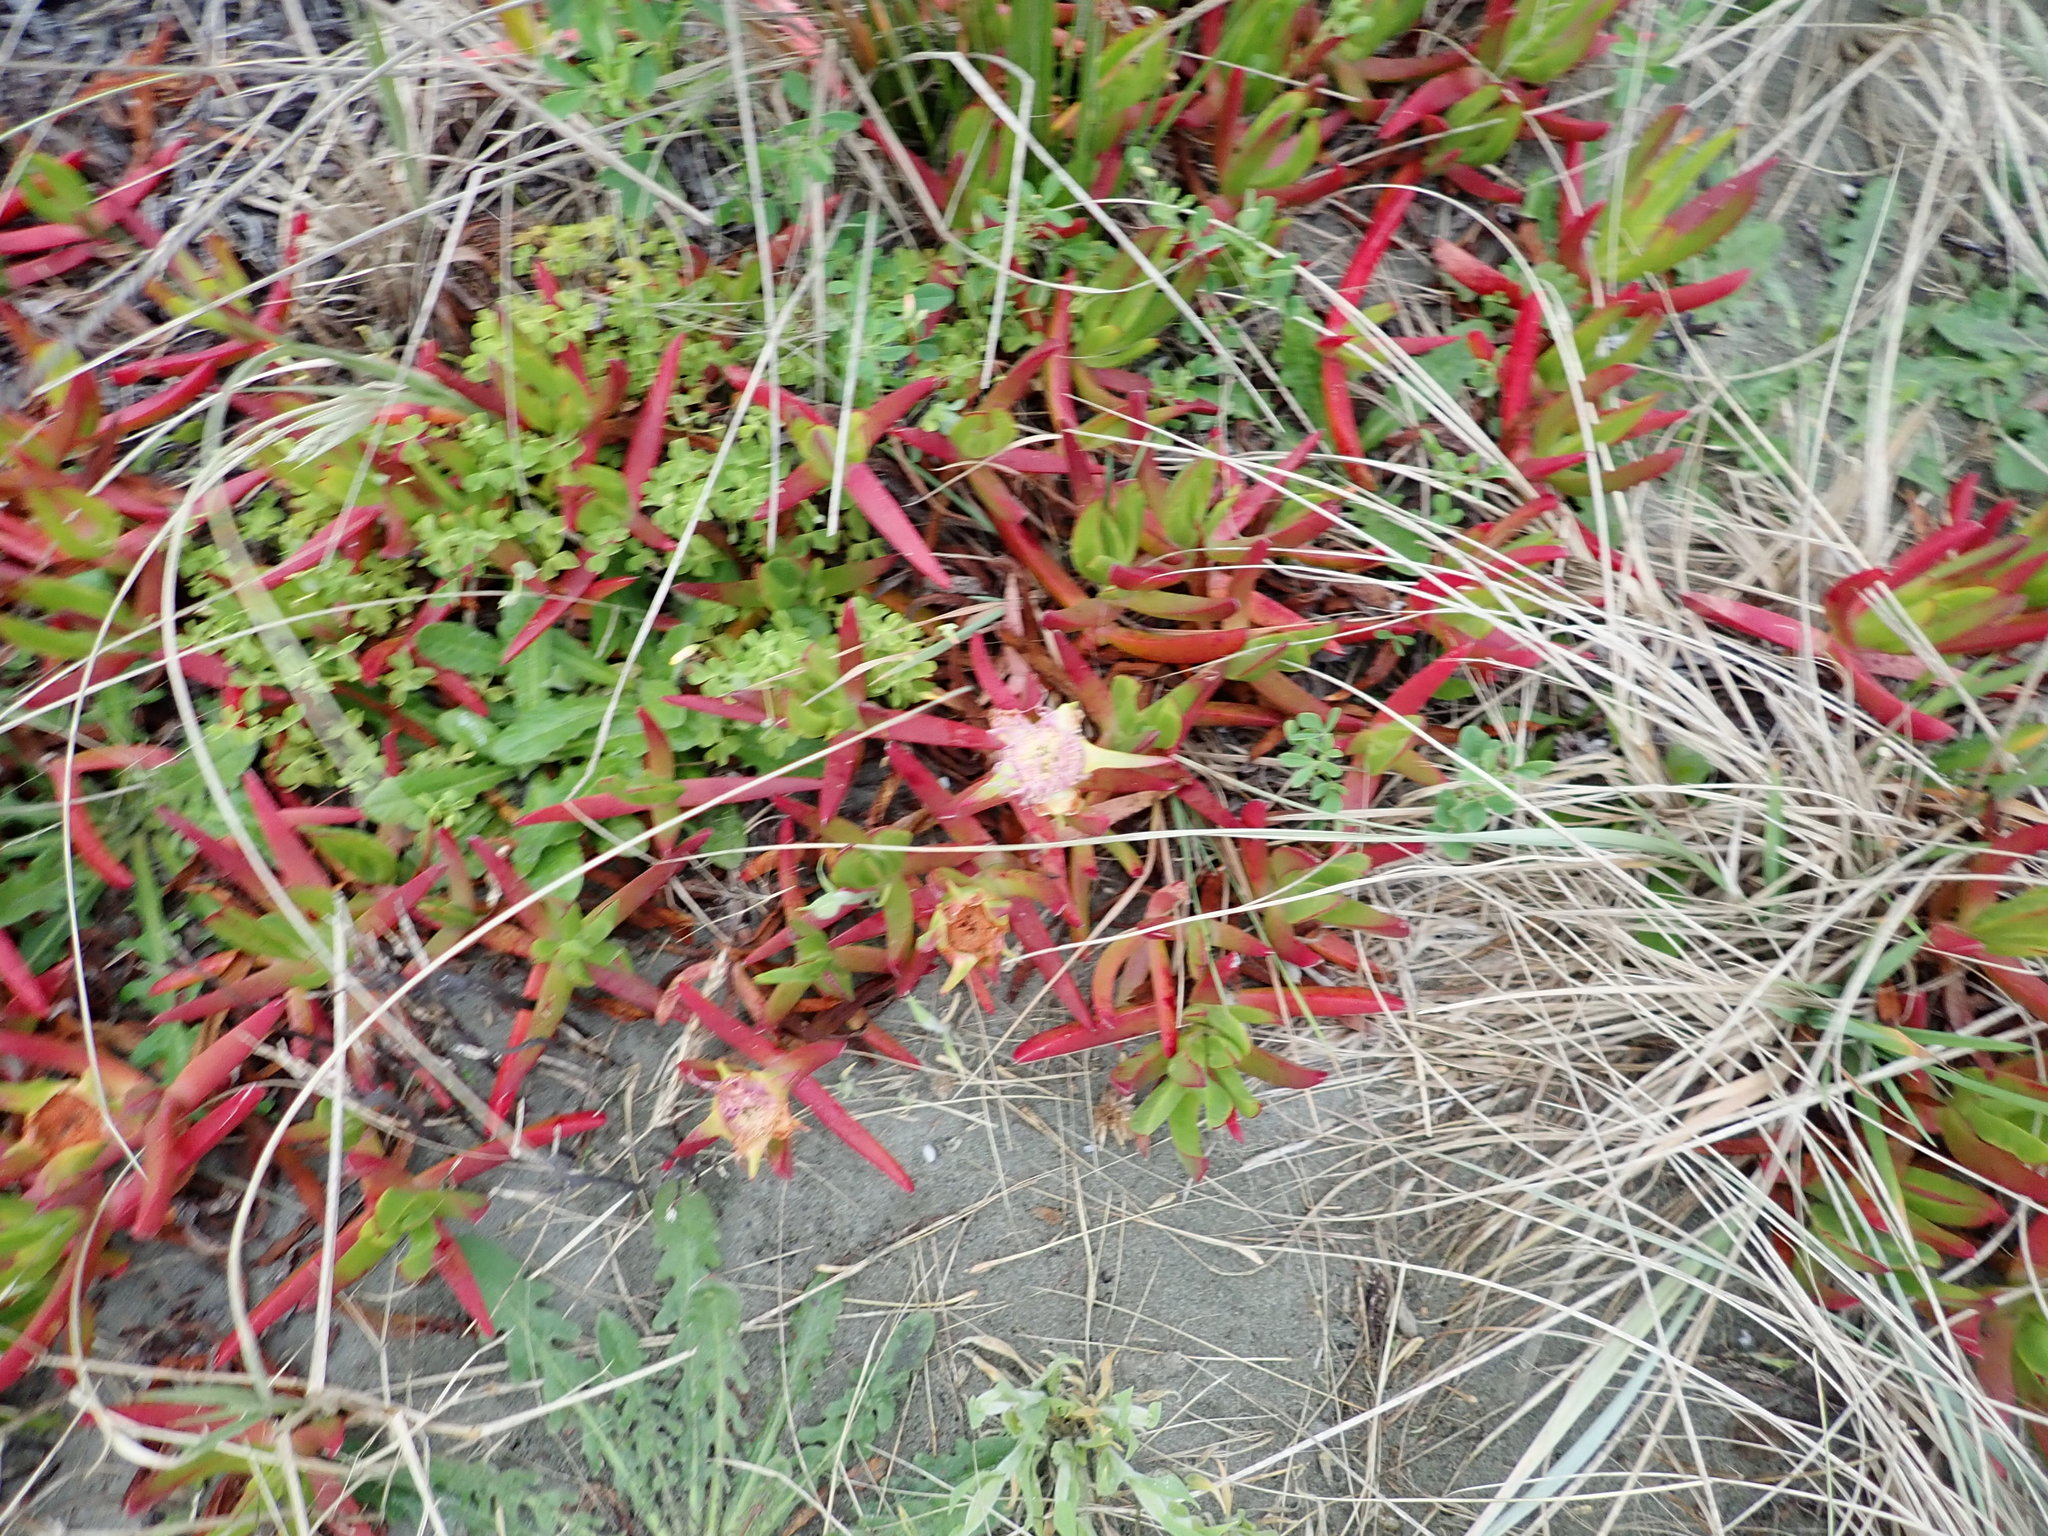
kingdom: Plantae
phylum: Tracheophyta
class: Magnoliopsida
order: Caryophyllales
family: Aizoaceae
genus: Carpobrotus
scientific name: Carpobrotus edulis
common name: Hottentot-fig
